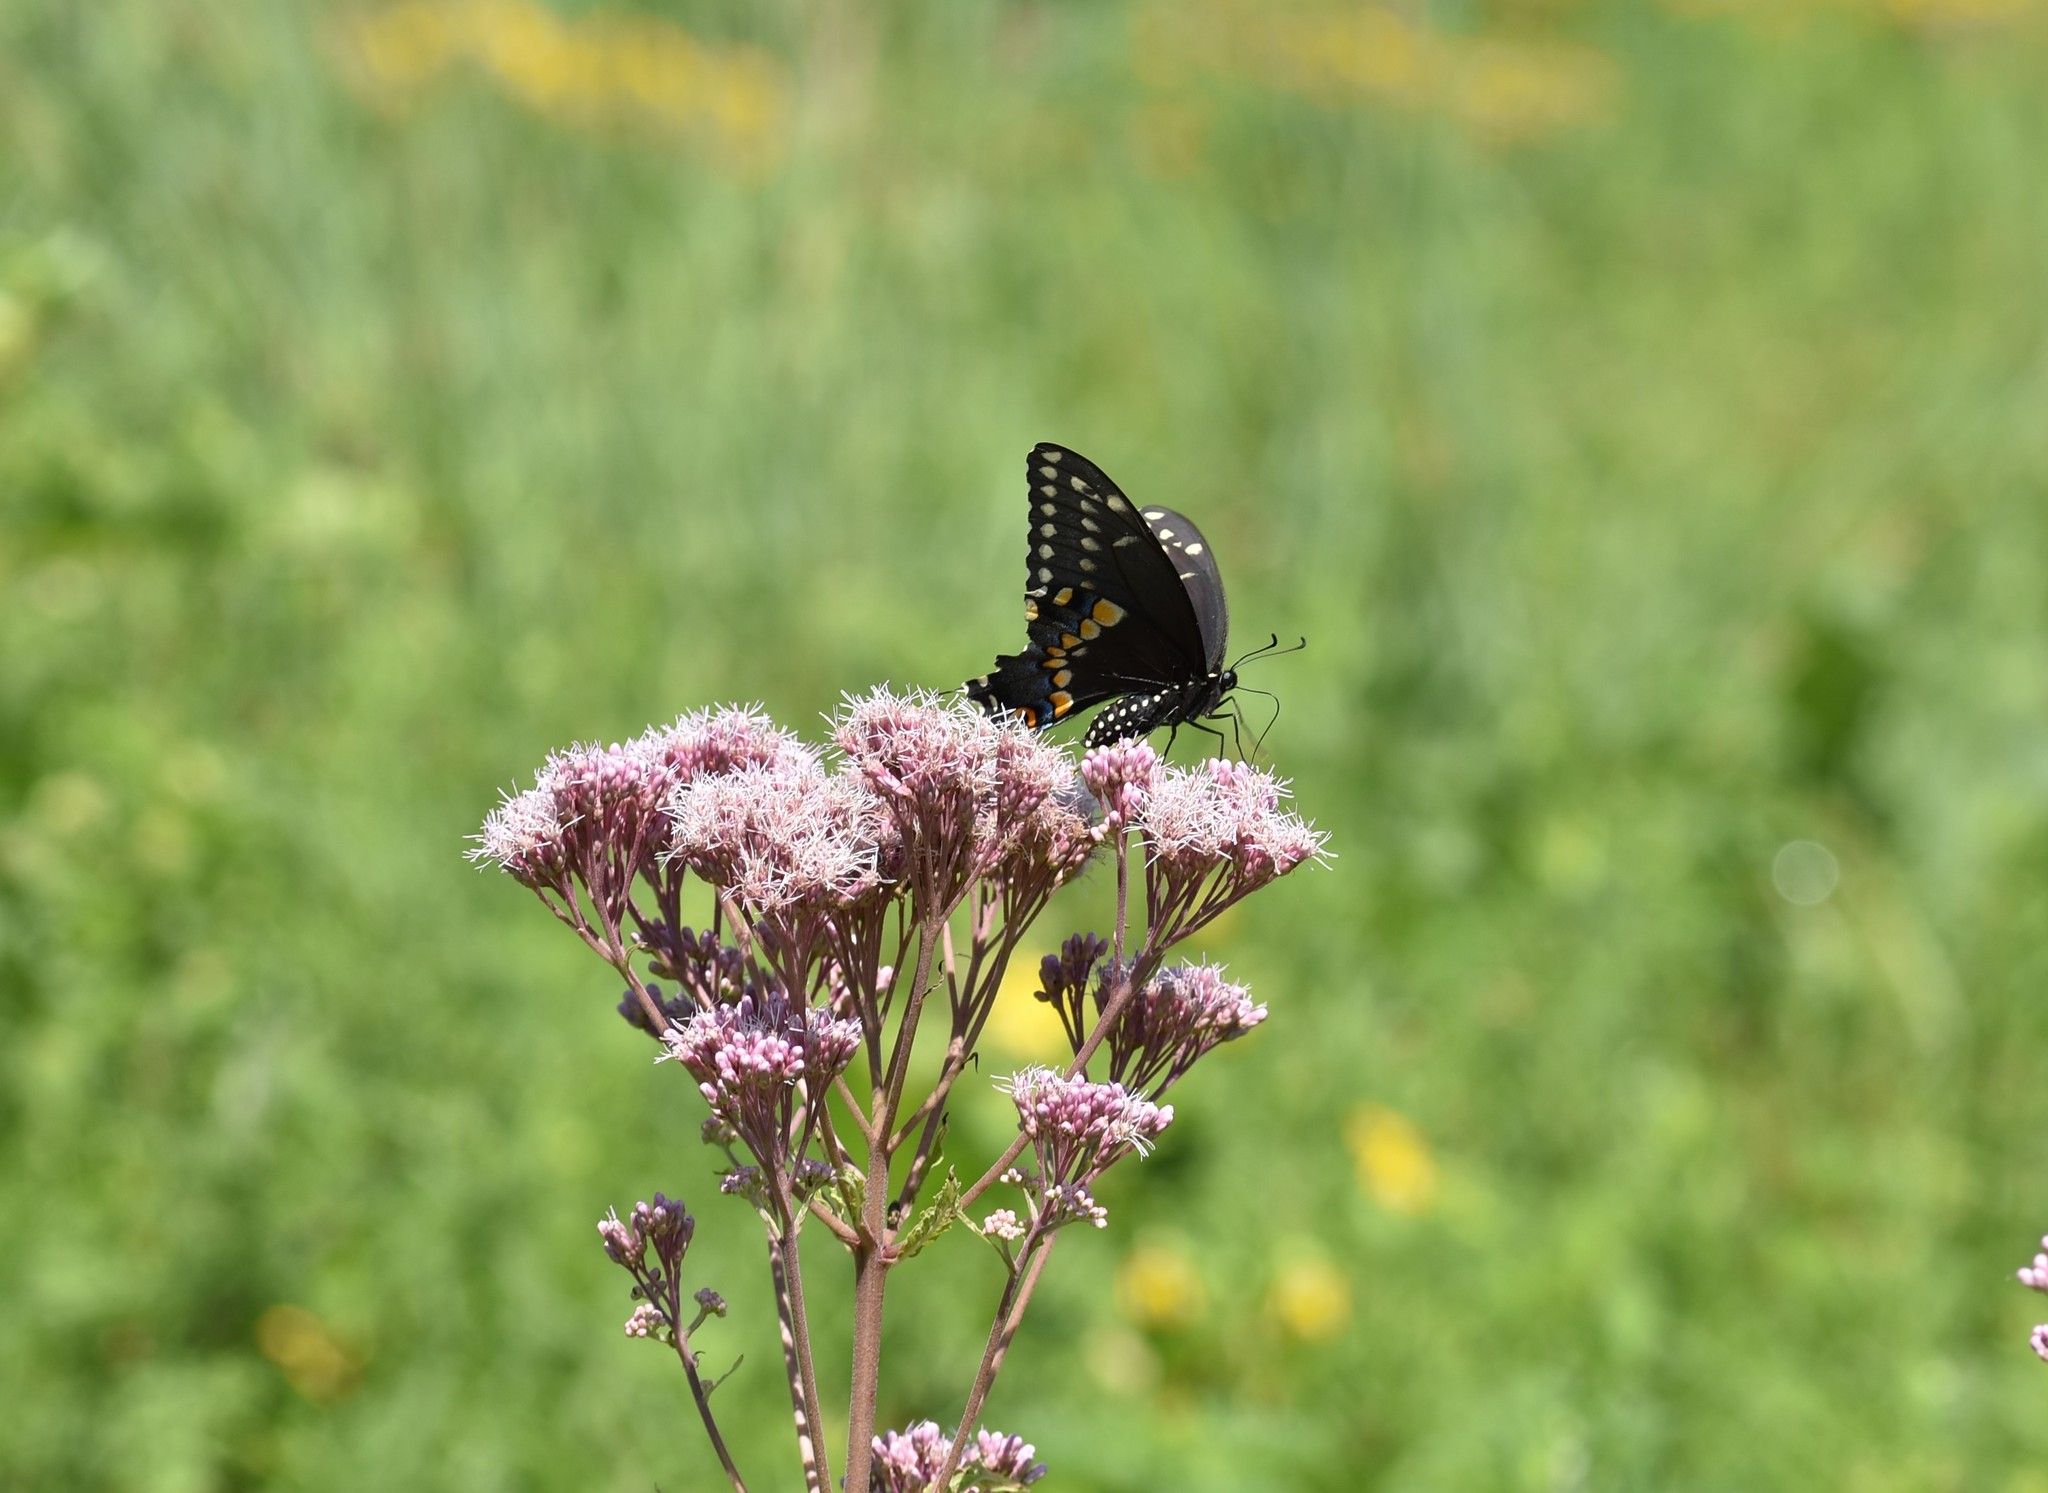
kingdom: Animalia
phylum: Arthropoda
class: Insecta
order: Lepidoptera
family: Papilionidae
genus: Papilio
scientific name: Papilio polyxenes
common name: Black swallowtail
